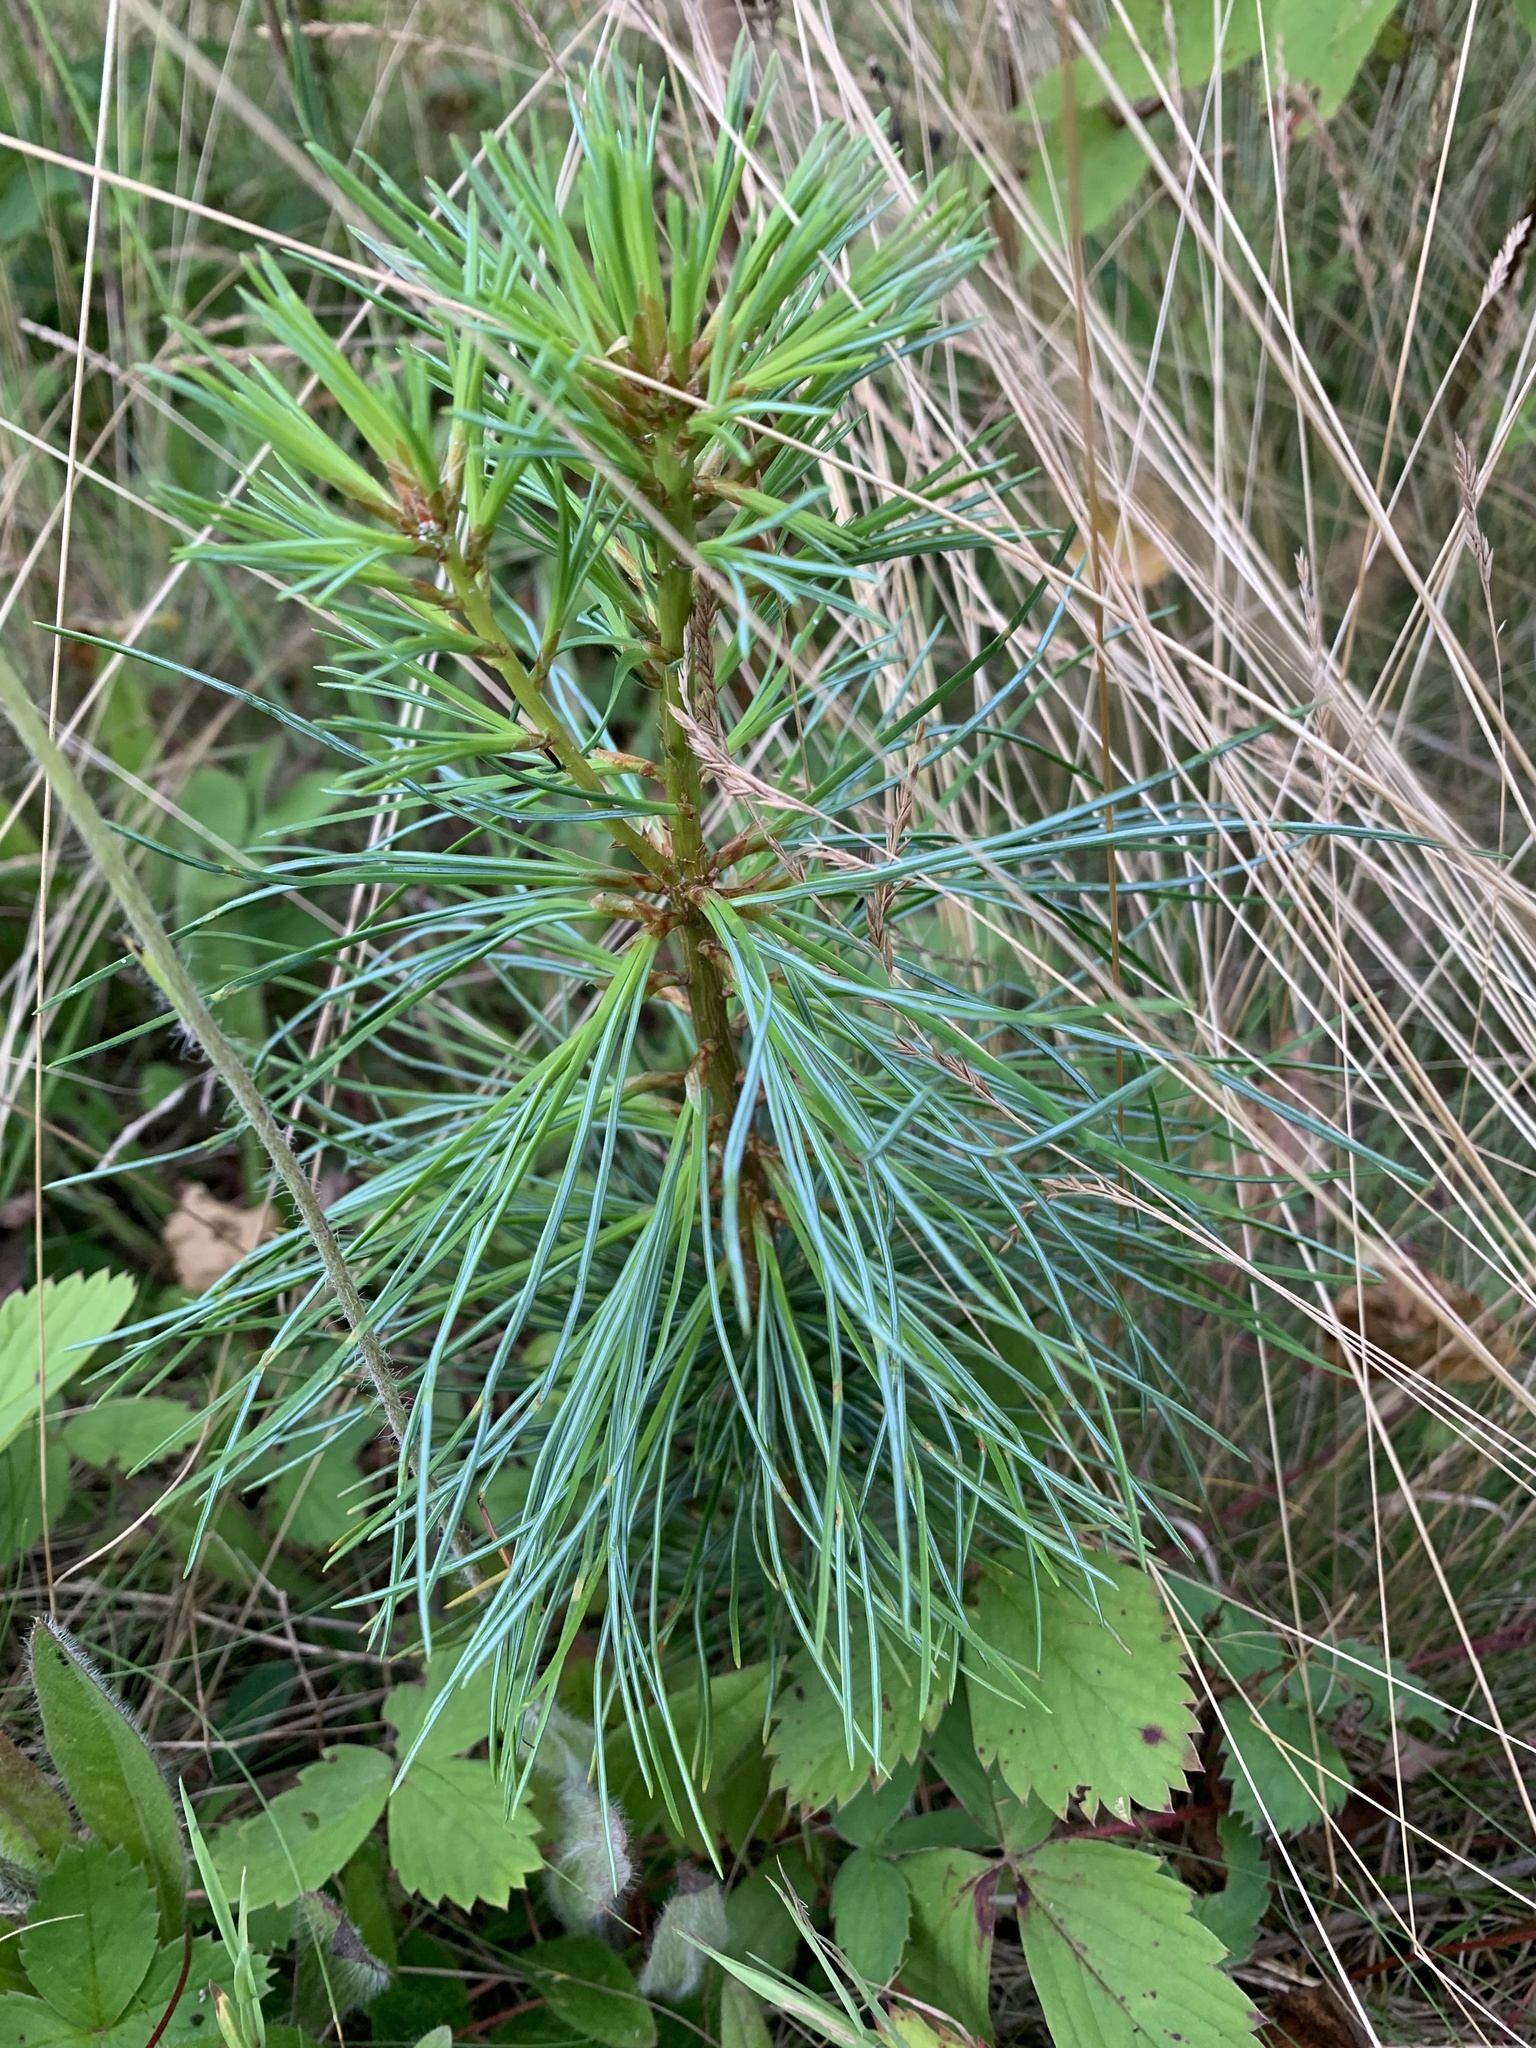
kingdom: Plantae
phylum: Tracheophyta
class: Pinopsida
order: Pinales
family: Pinaceae
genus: Pinus
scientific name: Pinus strobus
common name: Weymouth pine
